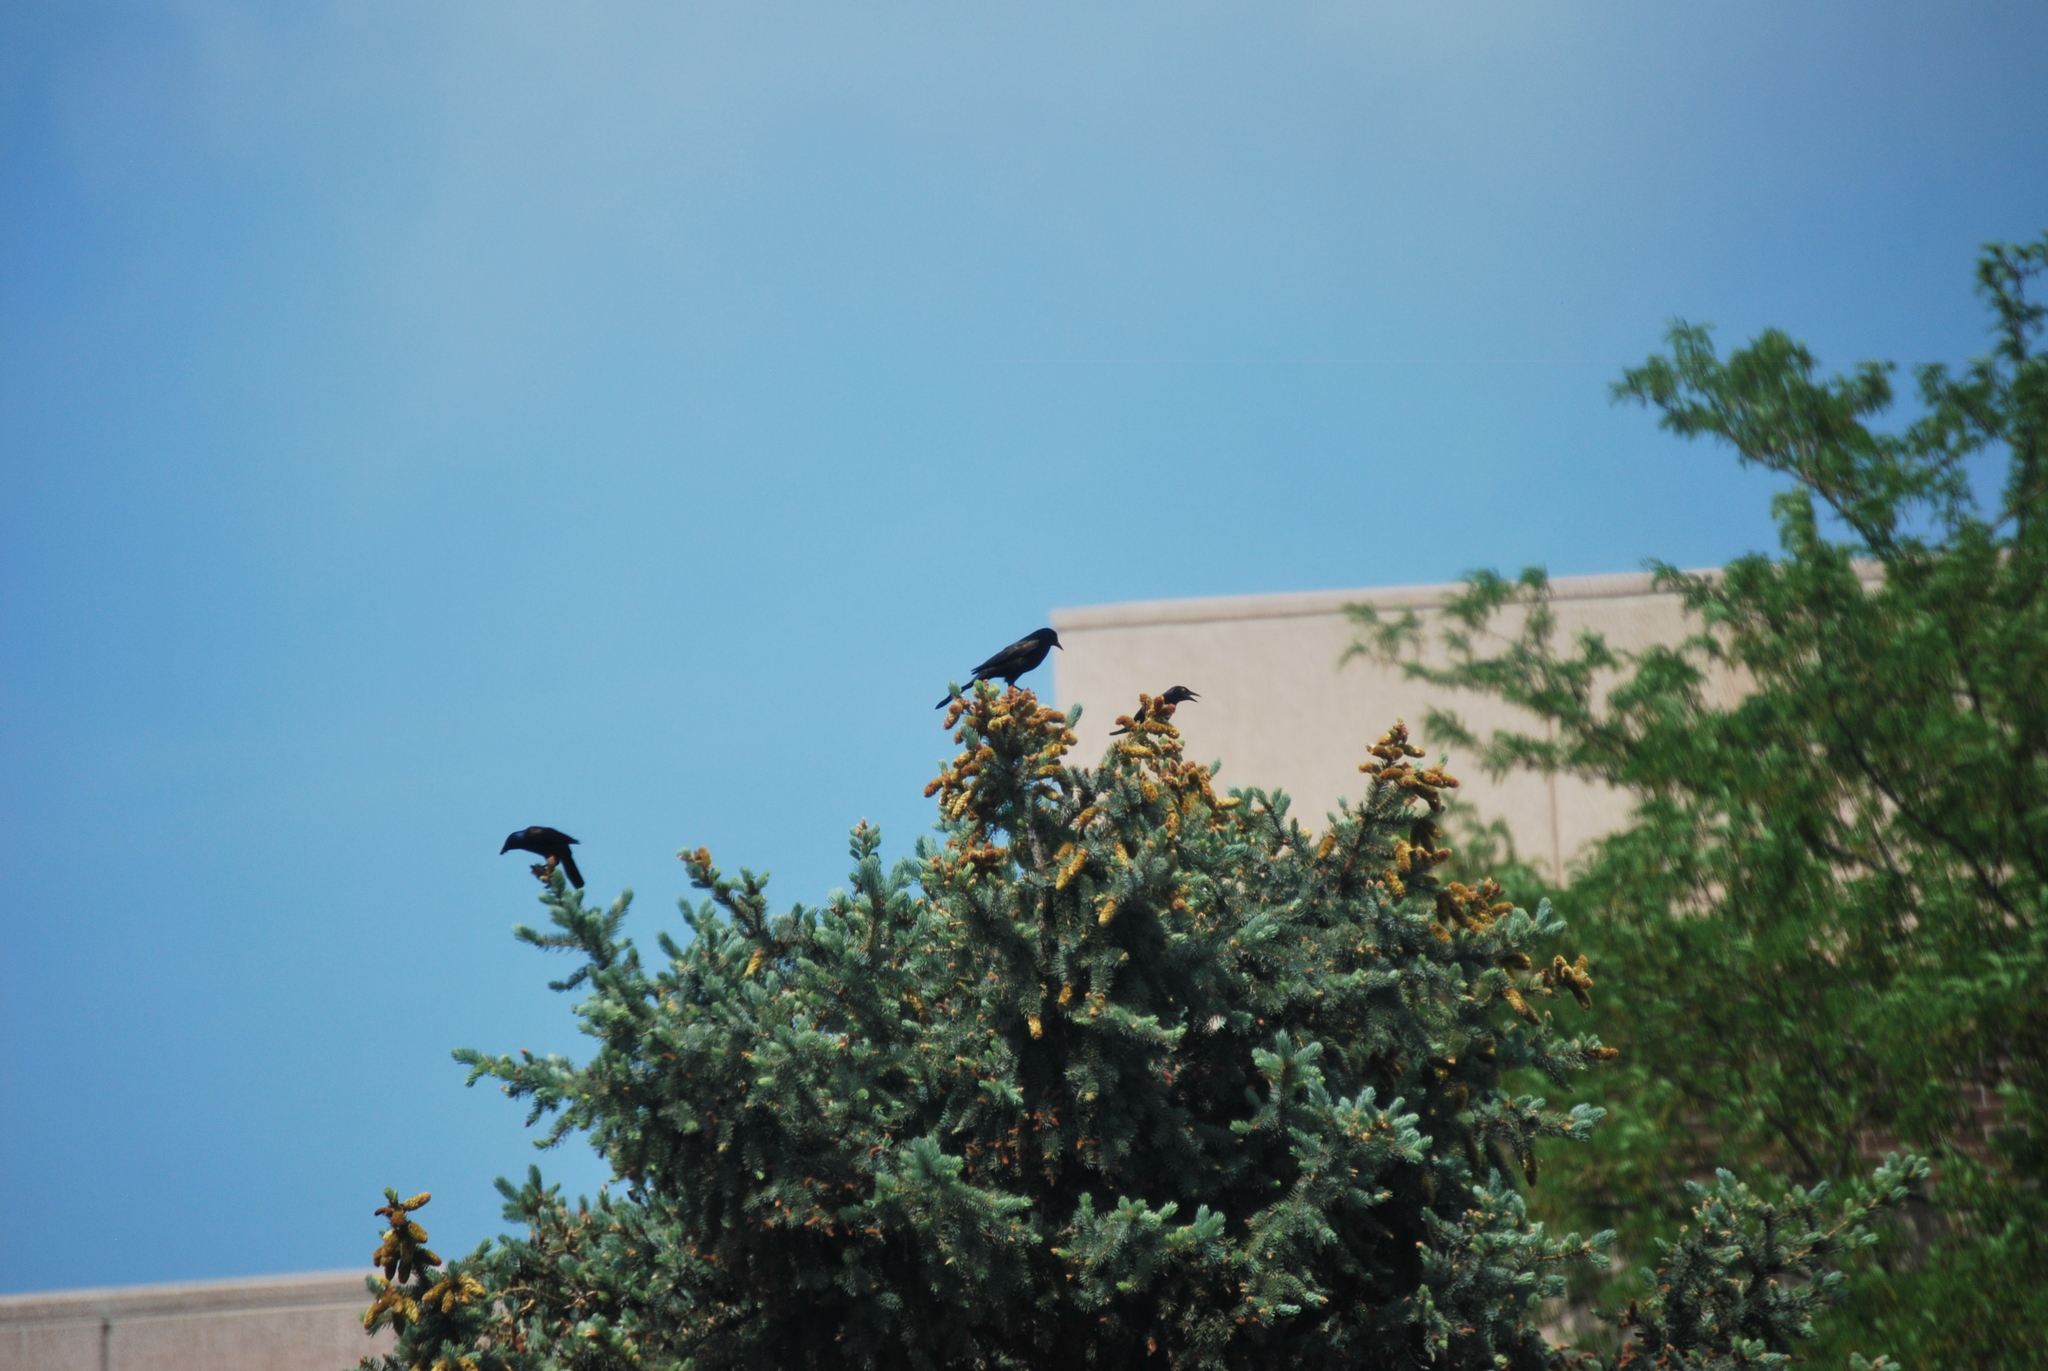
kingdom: Animalia
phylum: Chordata
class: Aves
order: Passeriformes
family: Icteridae
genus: Quiscalus
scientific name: Quiscalus quiscula
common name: Common grackle
